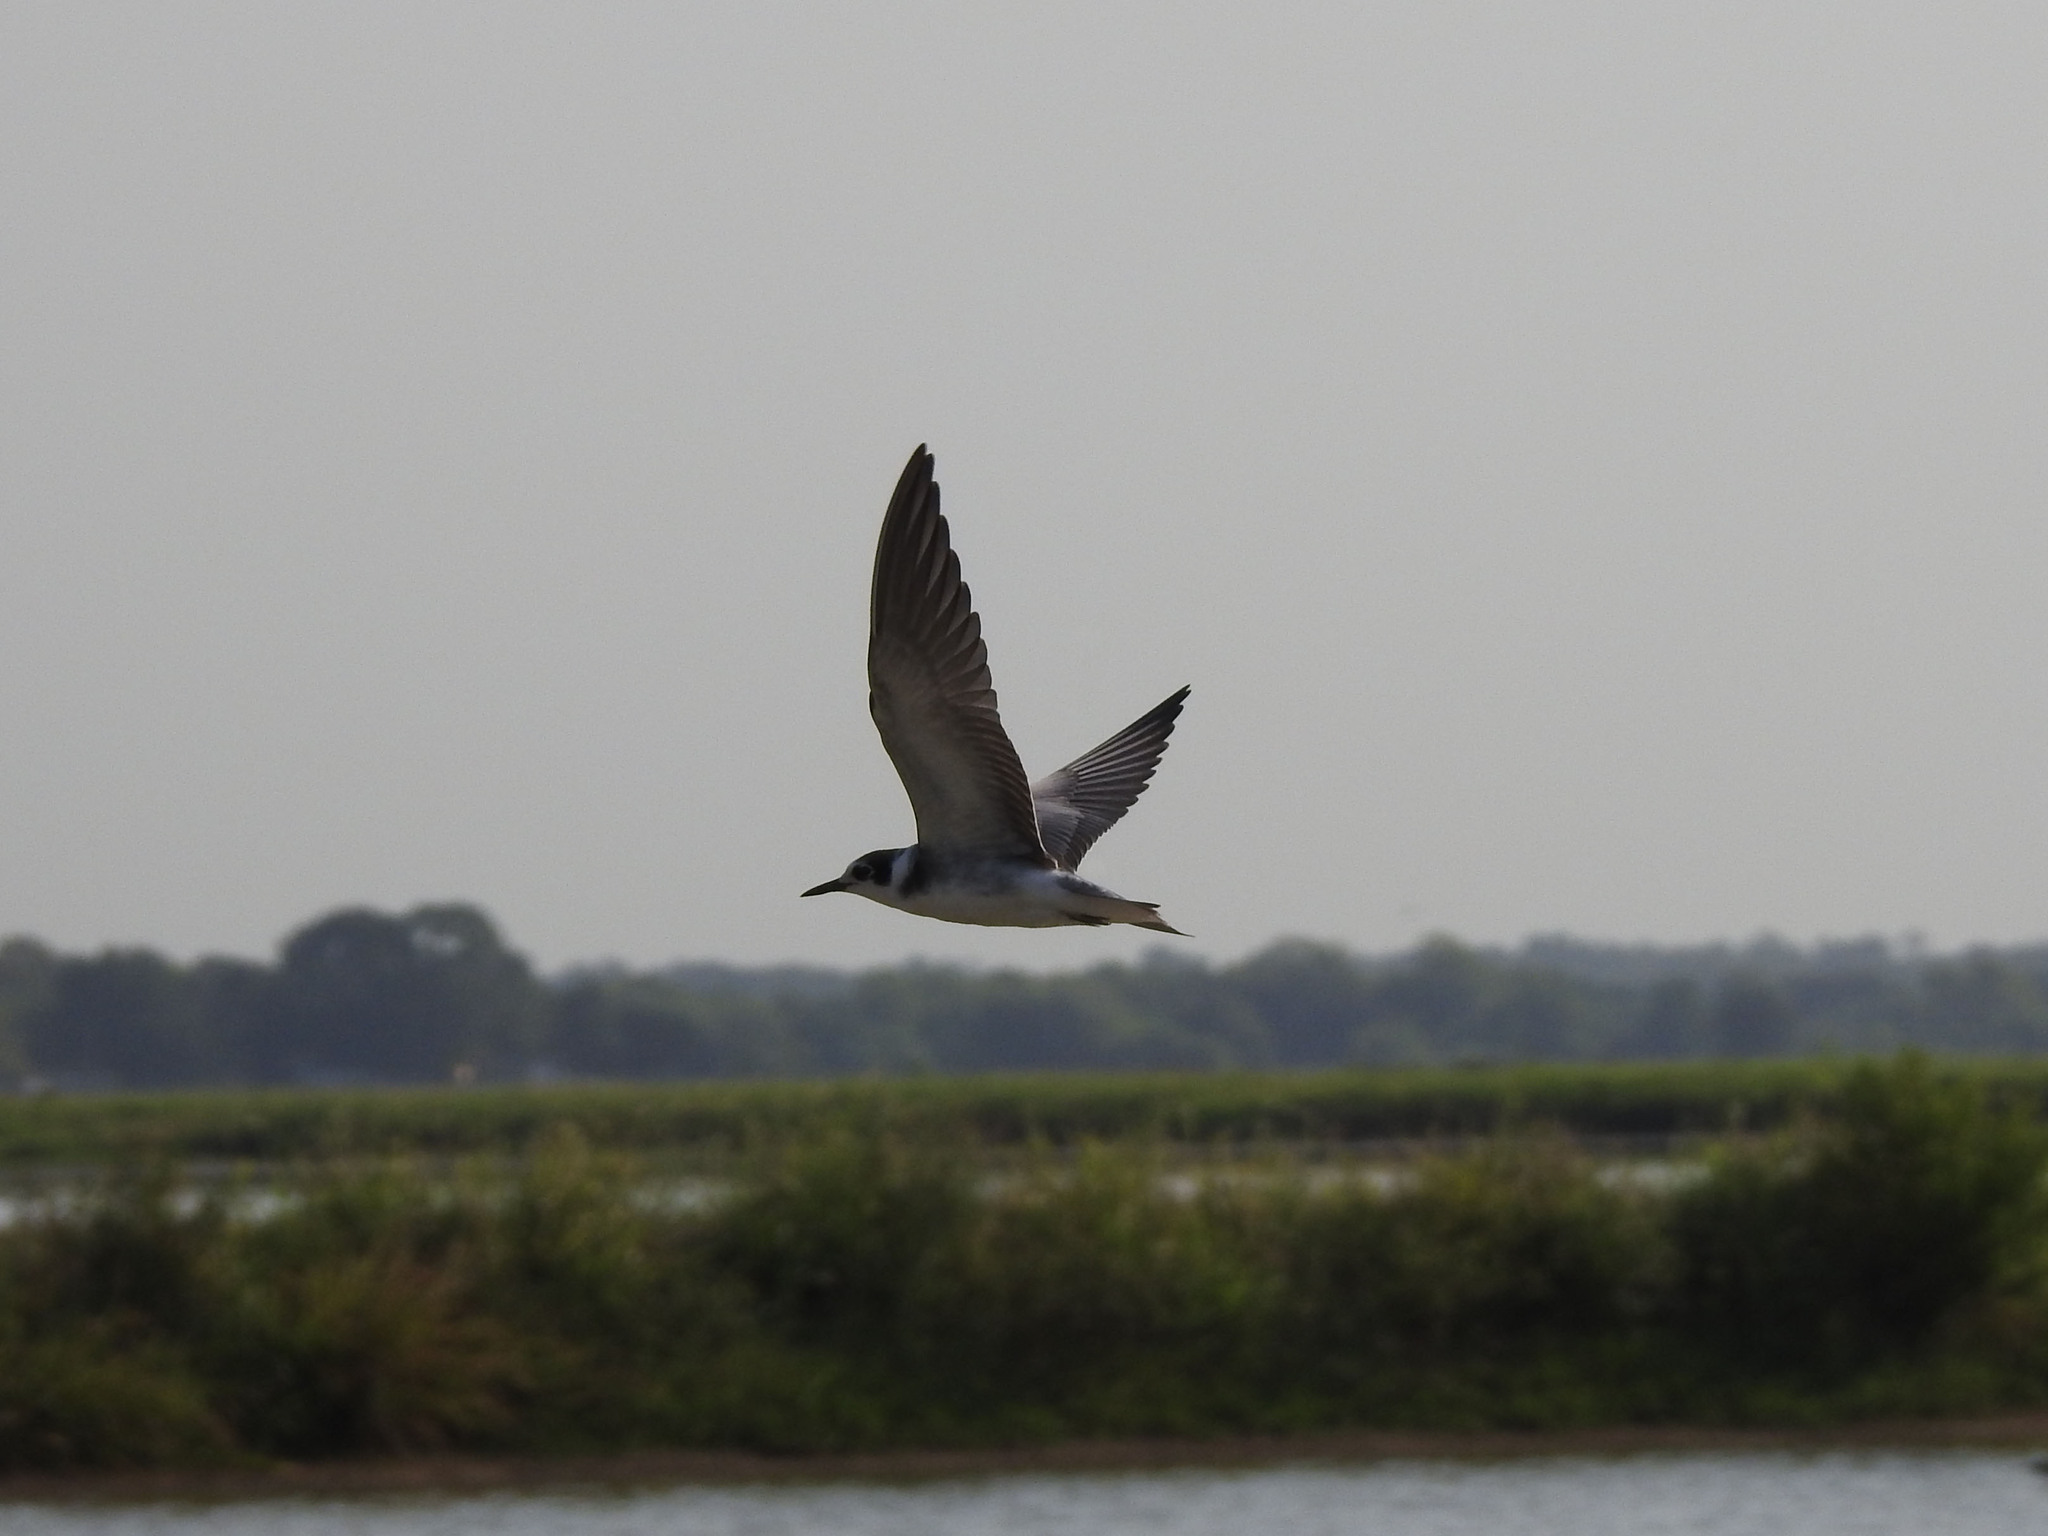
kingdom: Animalia
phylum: Chordata
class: Aves
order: Charadriiformes
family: Laridae
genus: Chlidonias
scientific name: Chlidonias niger
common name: Black tern
